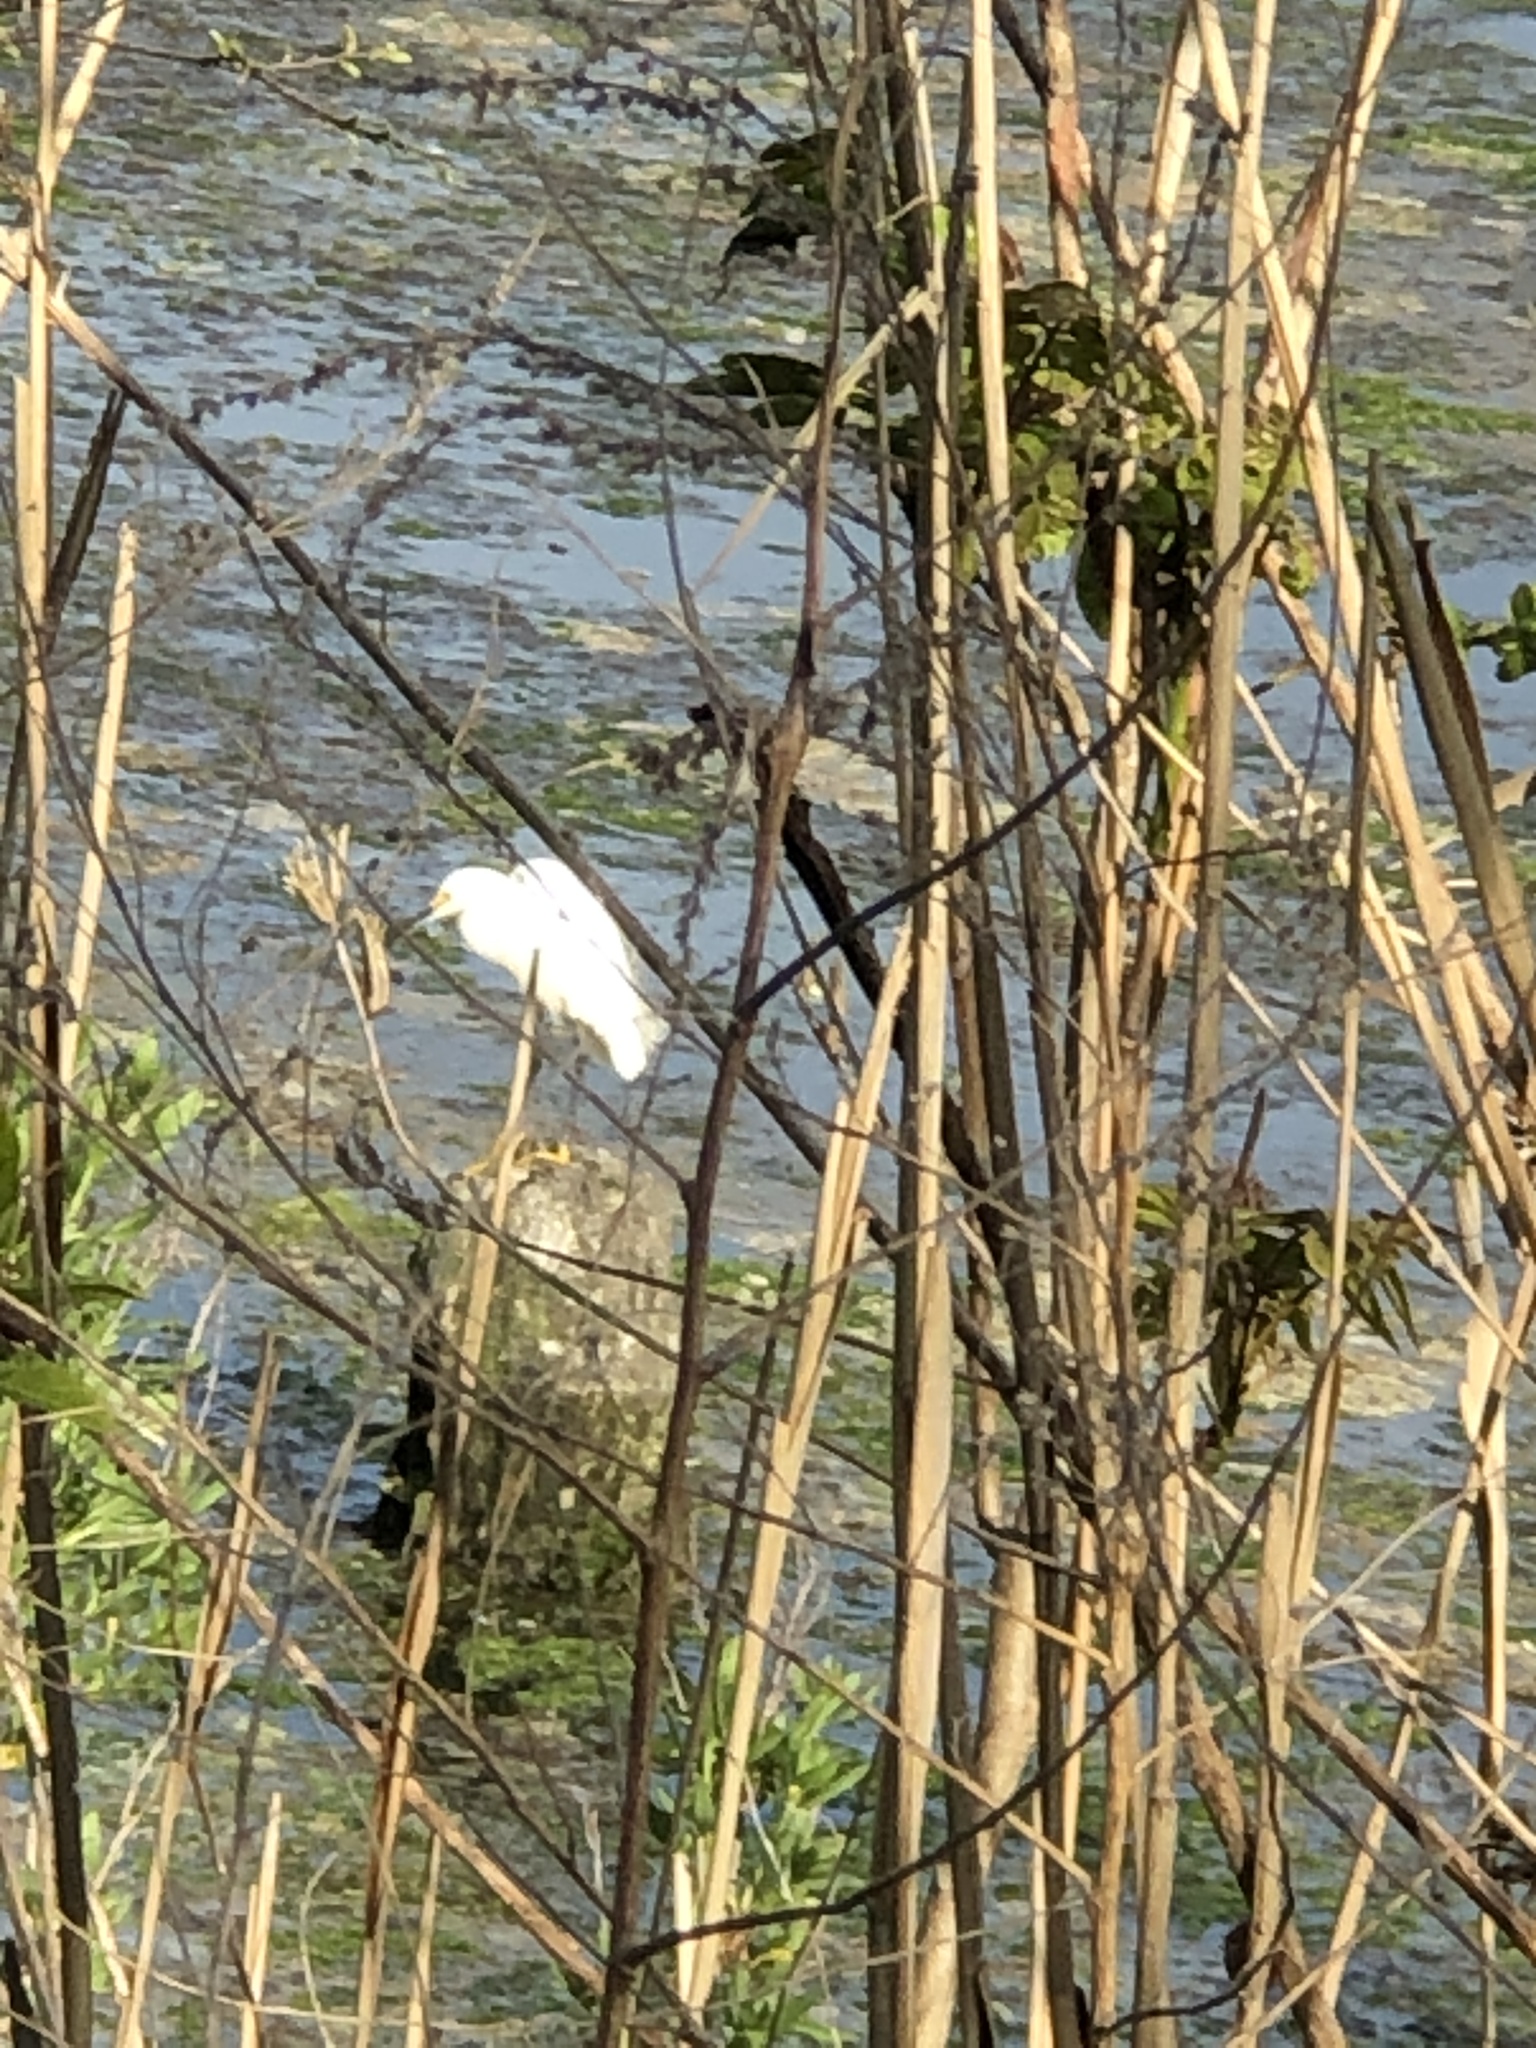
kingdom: Animalia
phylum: Chordata
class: Aves
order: Pelecaniformes
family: Ardeidae
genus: Egretta
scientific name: Egretta thula
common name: Snowy egret
